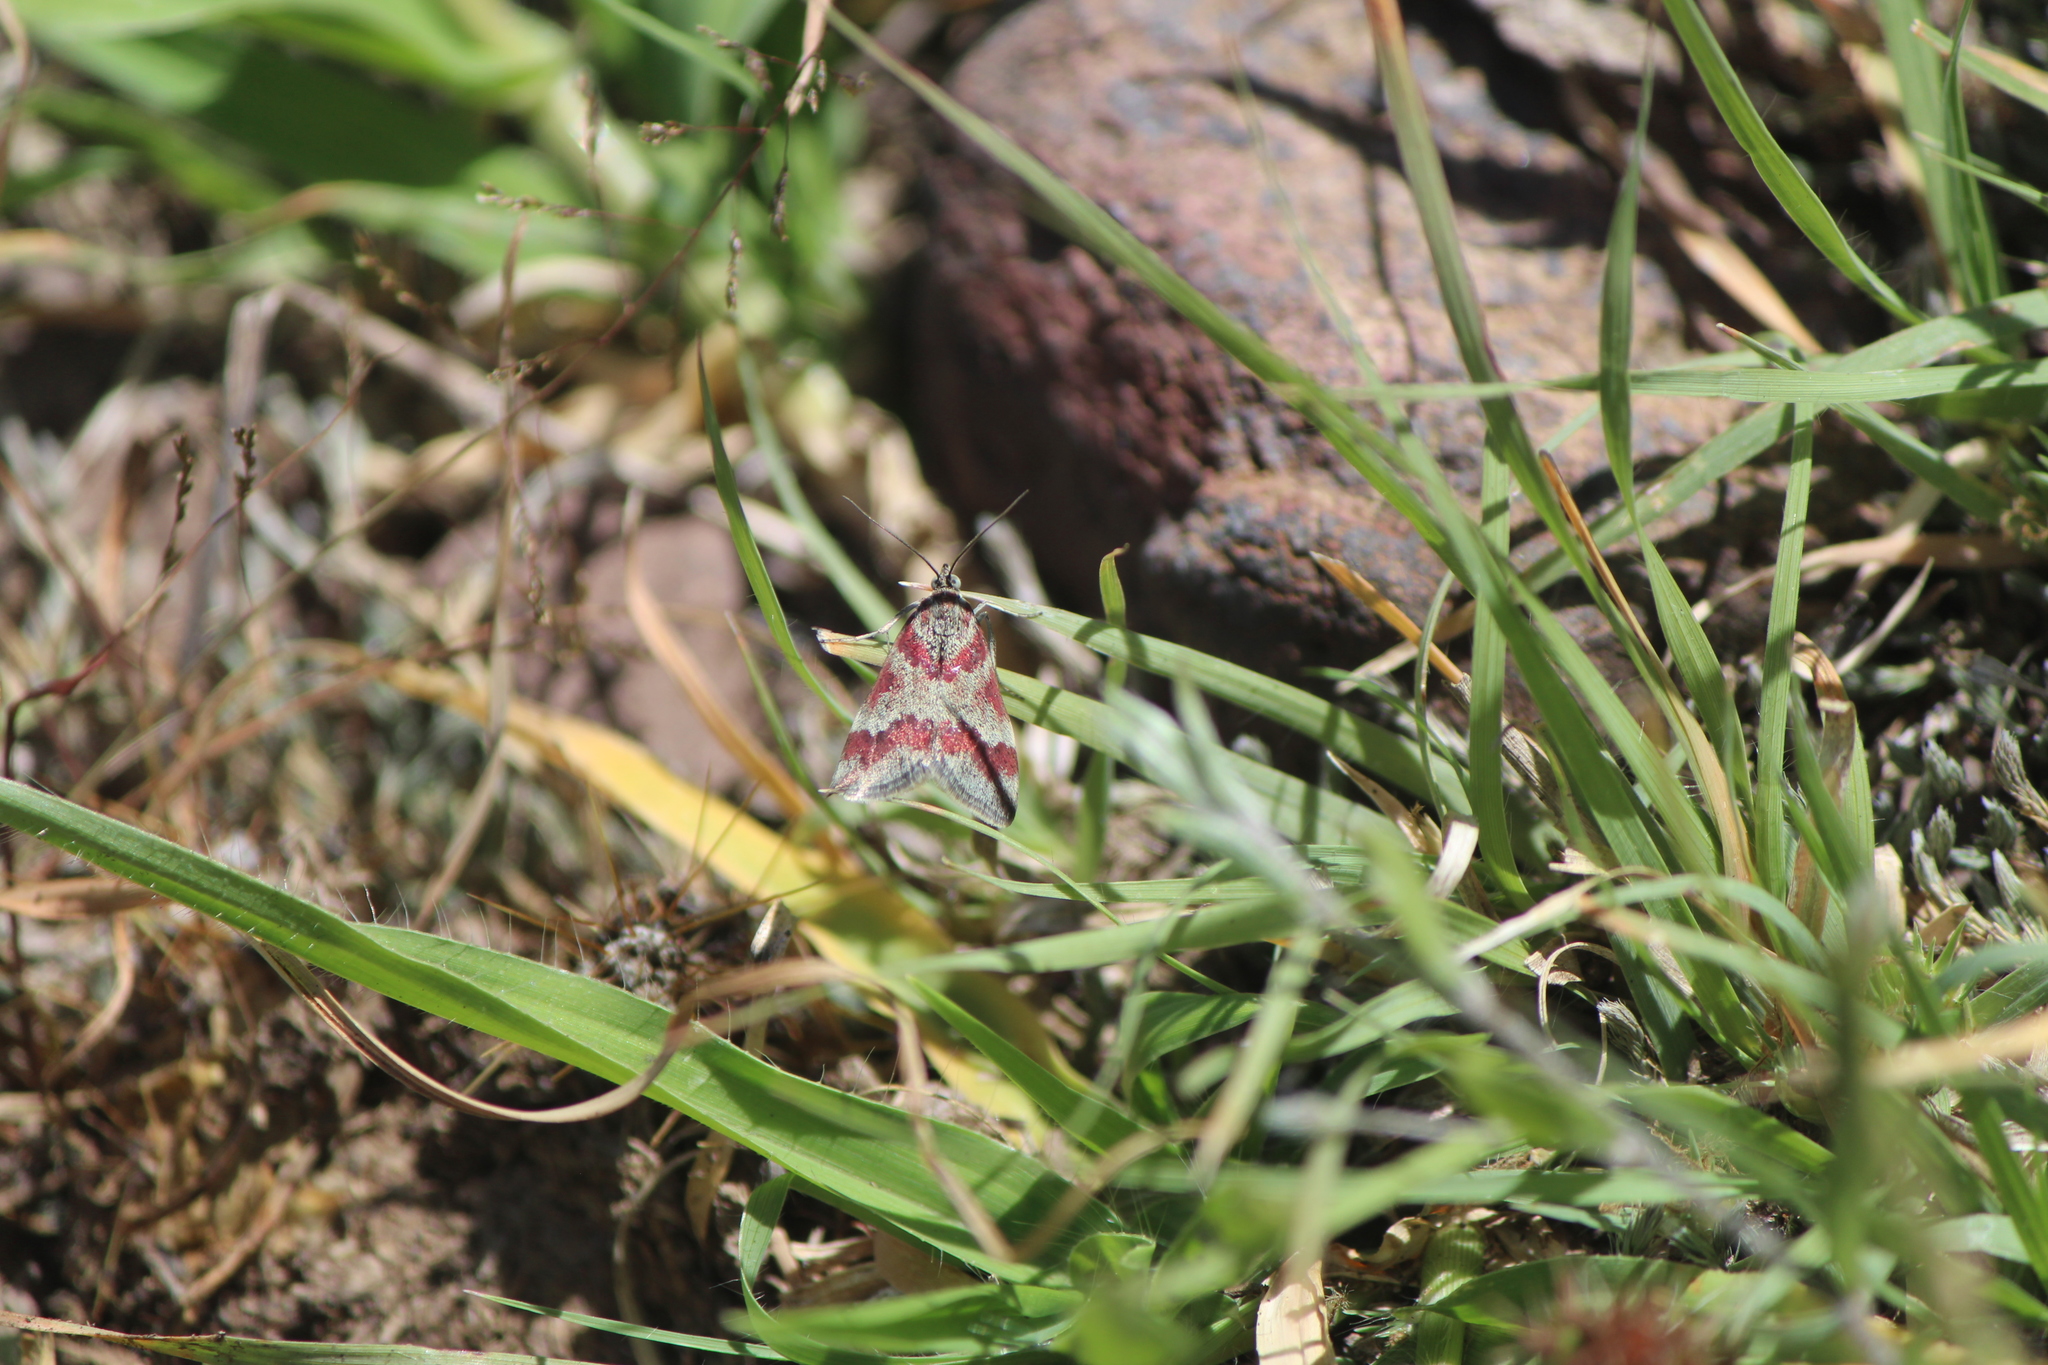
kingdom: Animalia
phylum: Arthropoda
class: Insecta
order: Lepidoptera
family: Crambidae
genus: Noctuelia
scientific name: Noctuelia Mimoschinia rufofascialis
